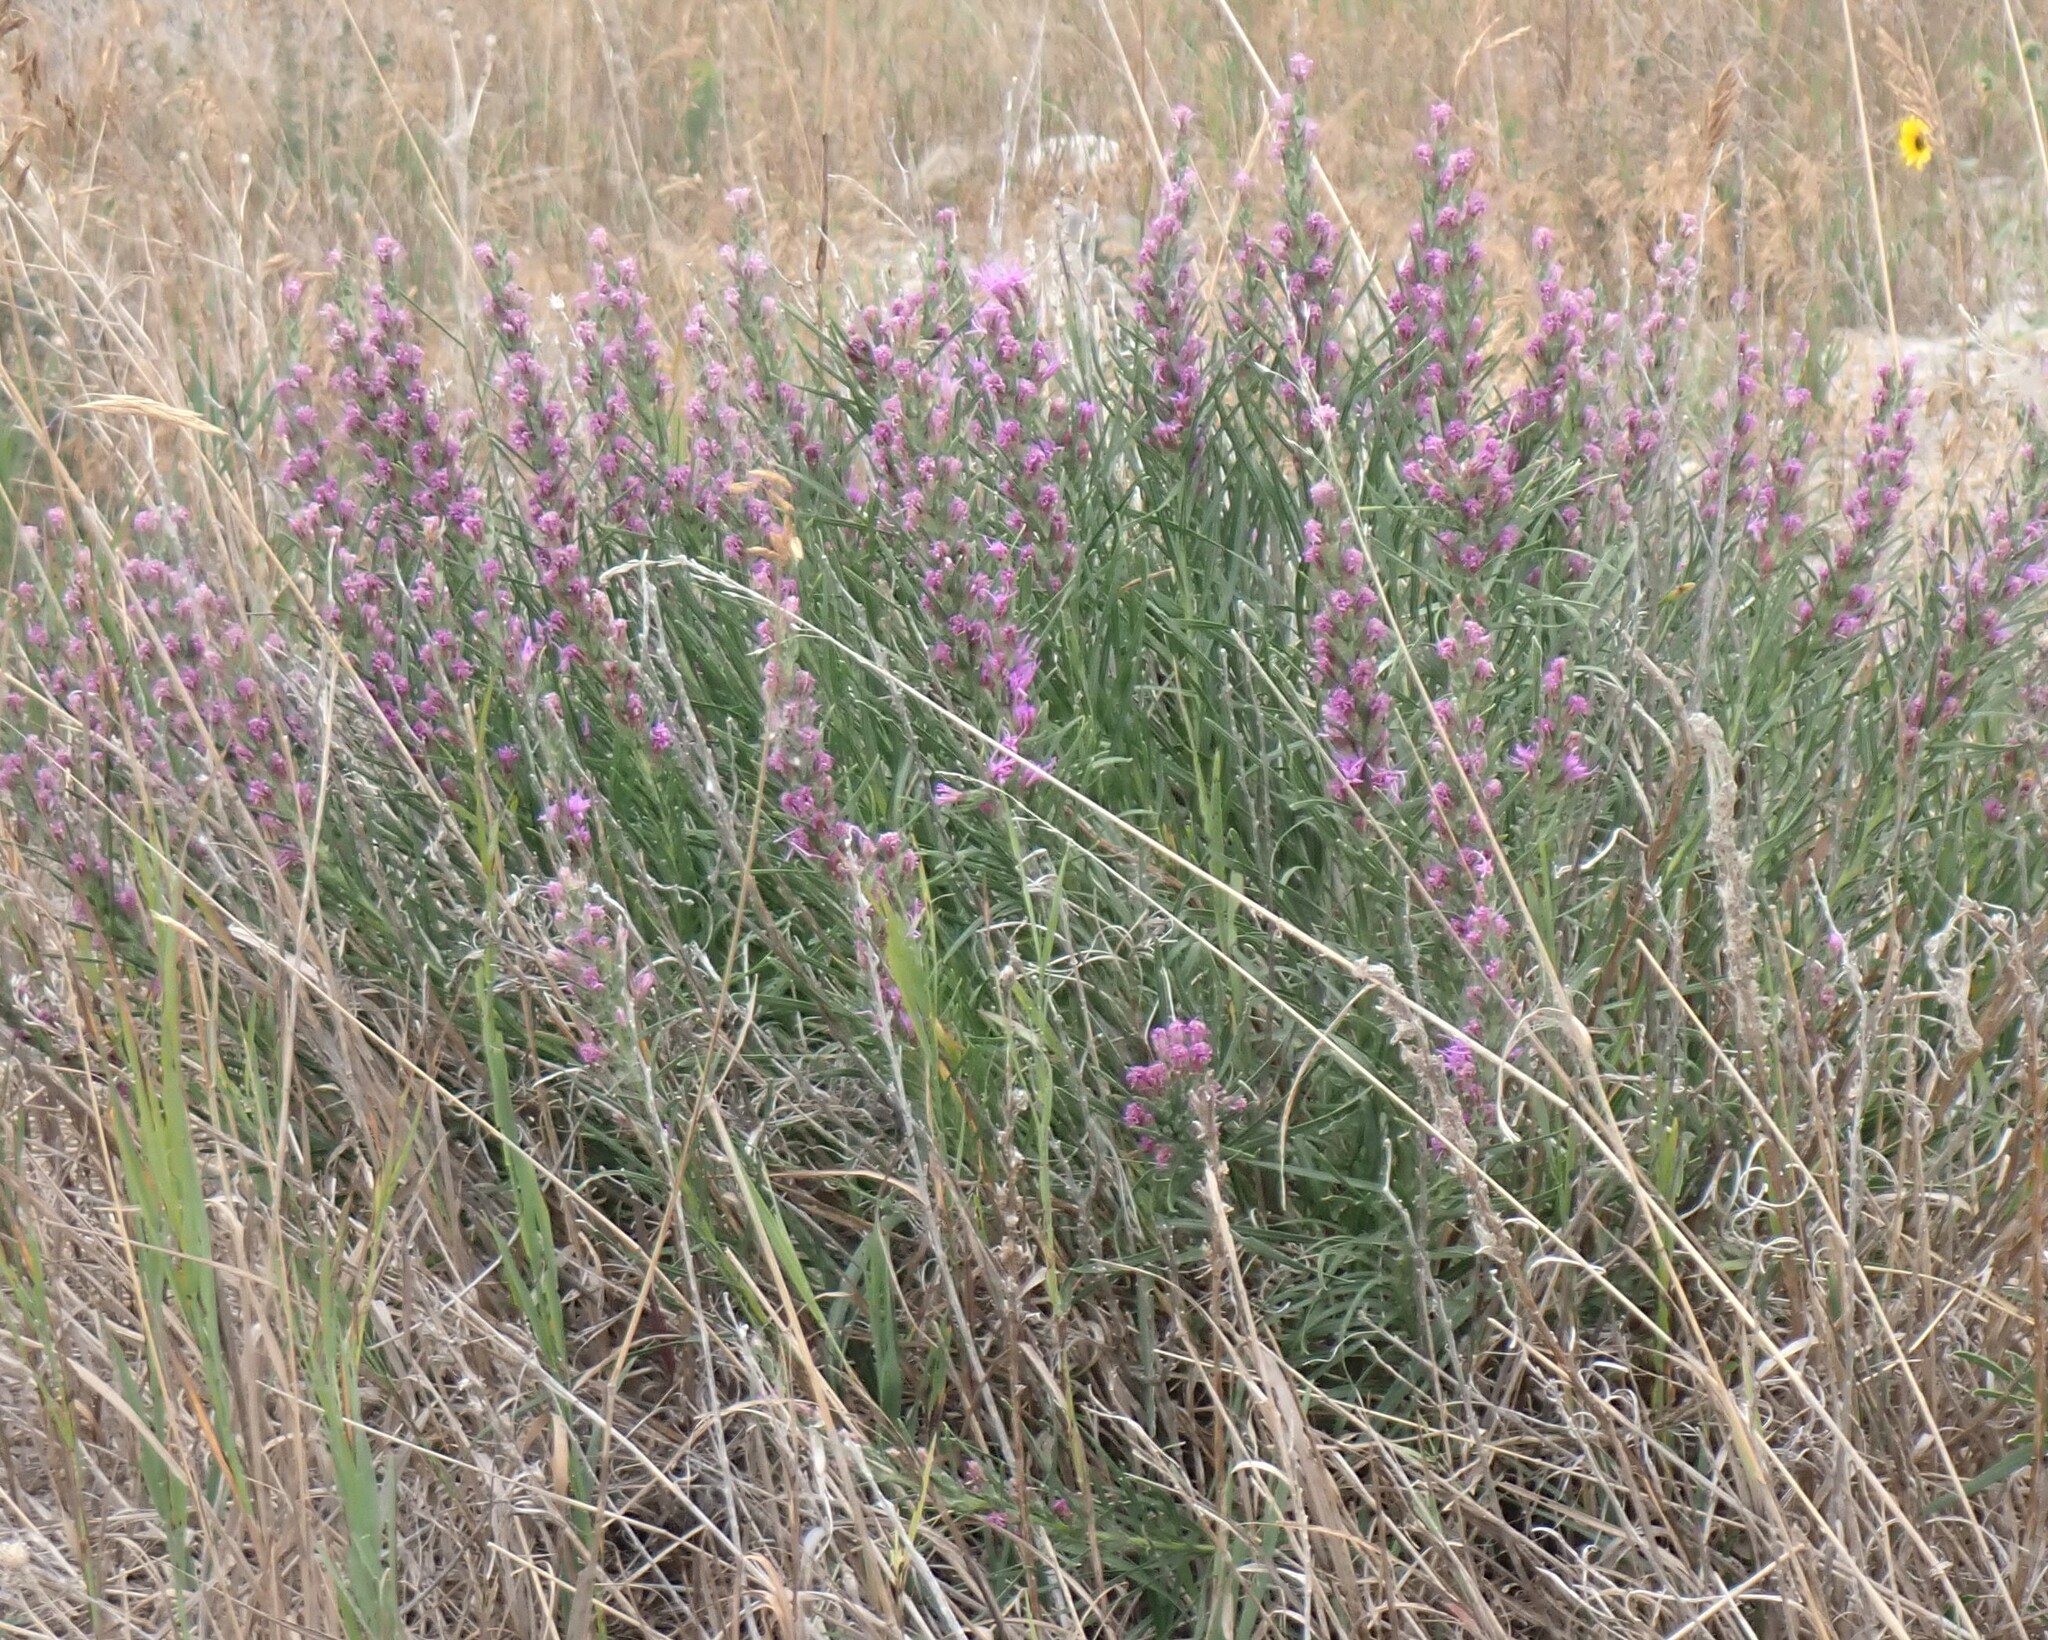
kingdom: Plantae
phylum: Tracheophyta
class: Magnoliopsida
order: Asterales
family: Asteraceae
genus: Liatris
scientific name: Liatris punctata
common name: Dotted gayfeather
